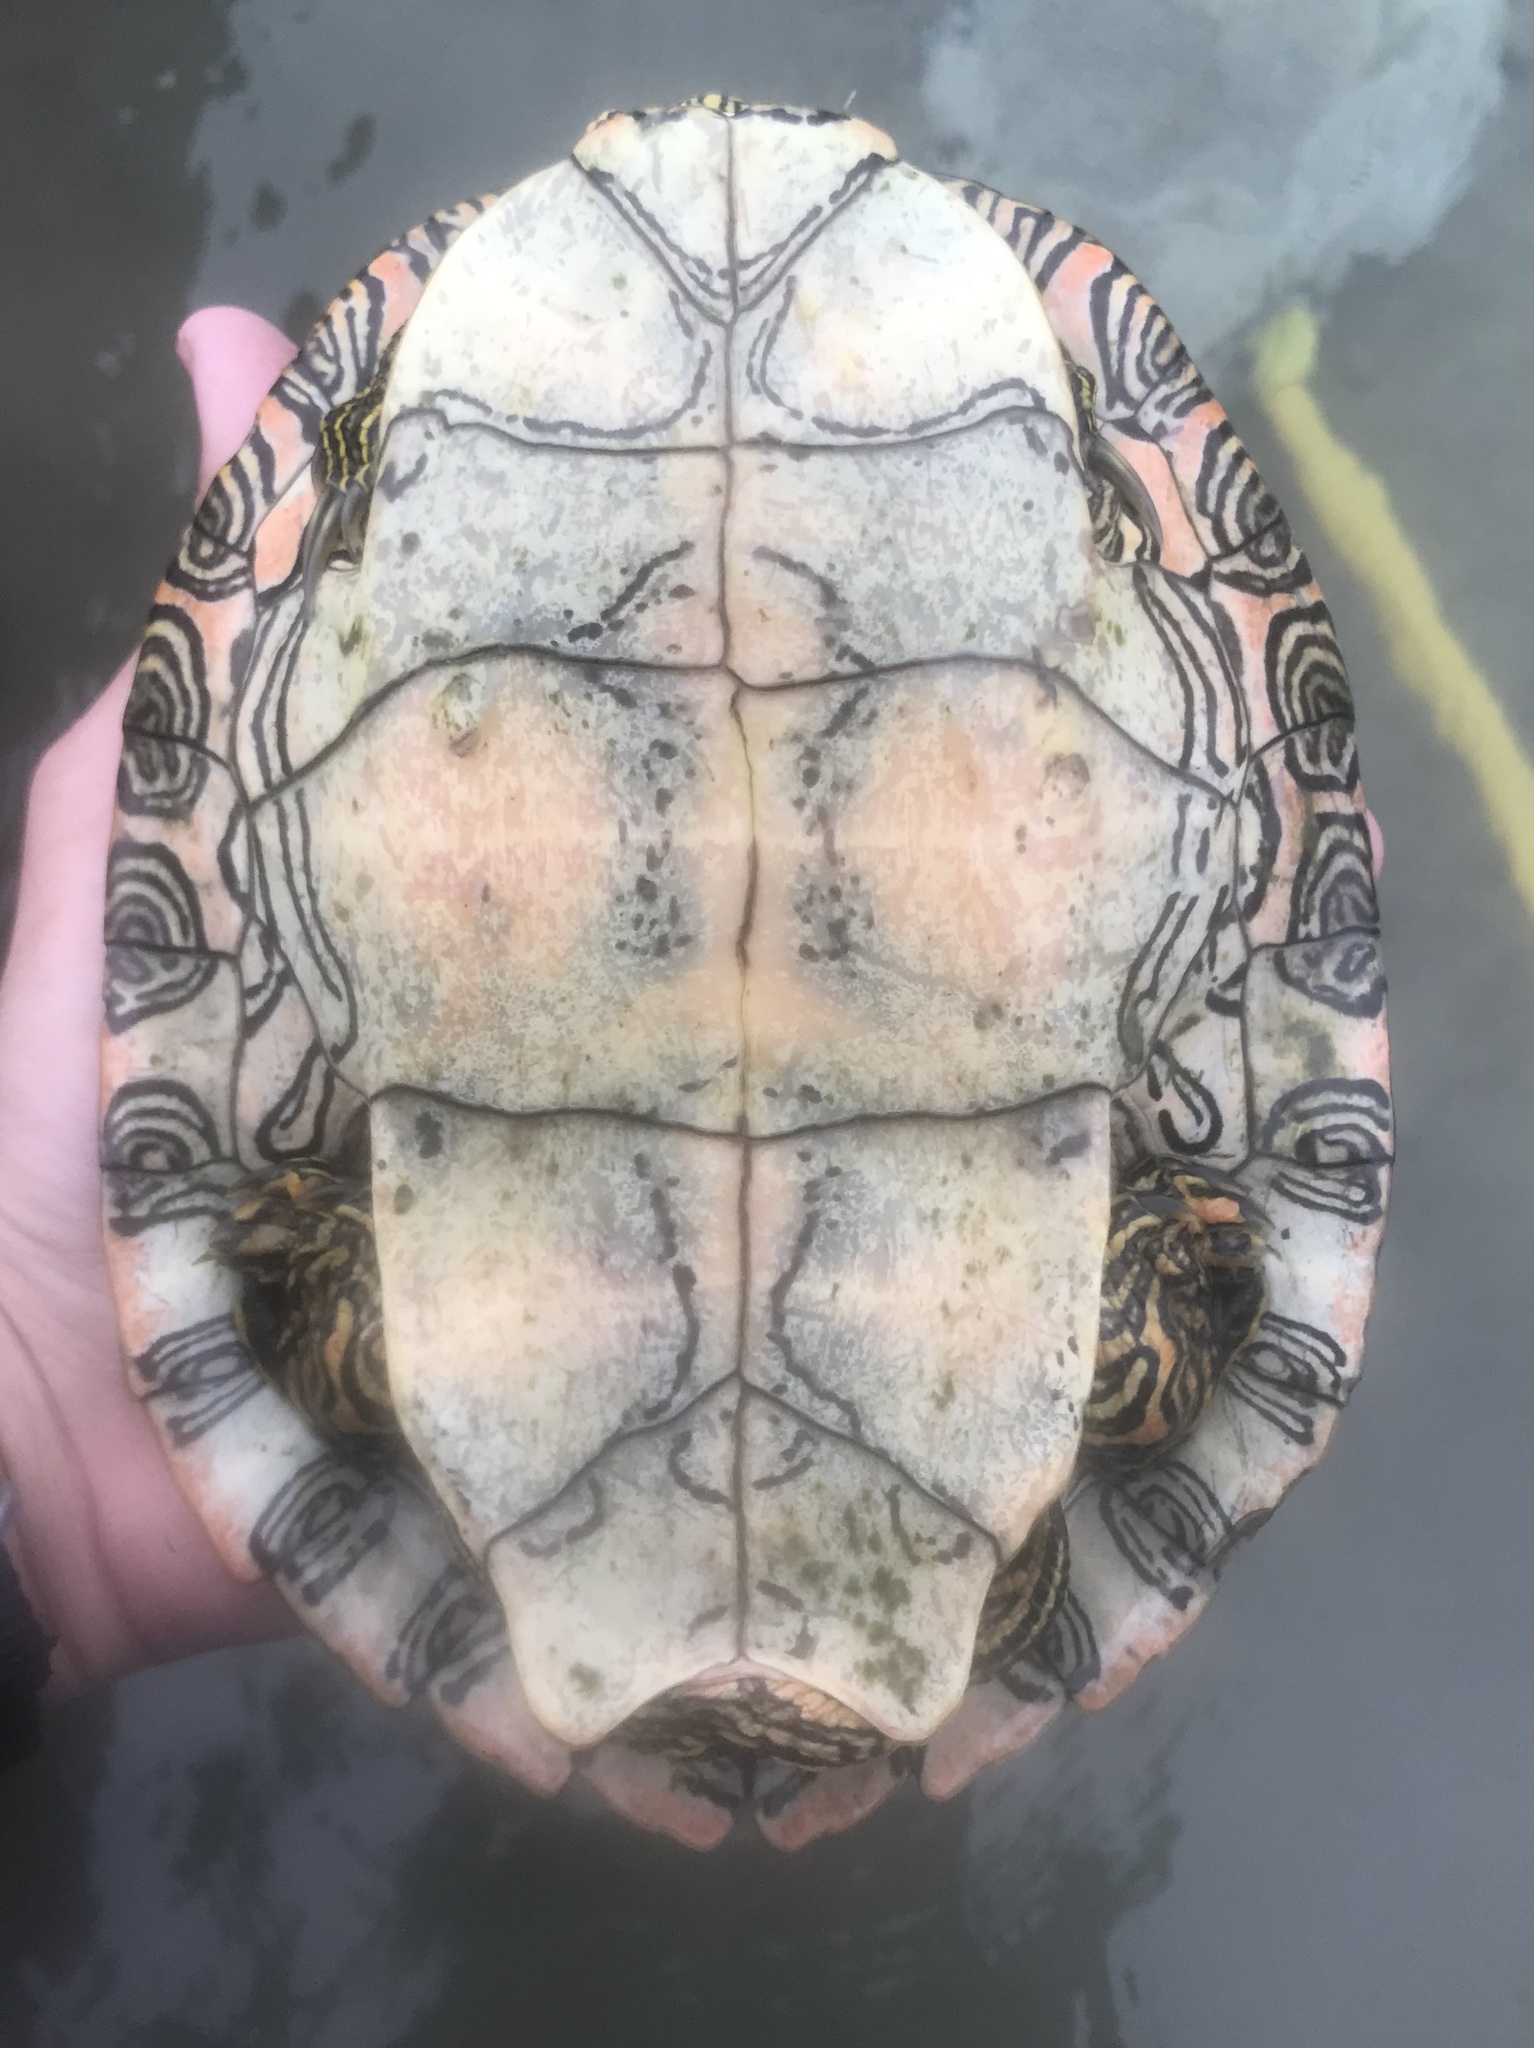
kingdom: Animalia
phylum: Chordata
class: Testudines
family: Emydidae
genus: Pseudemys
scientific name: Pseudemys texana
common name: Texas river cooter
